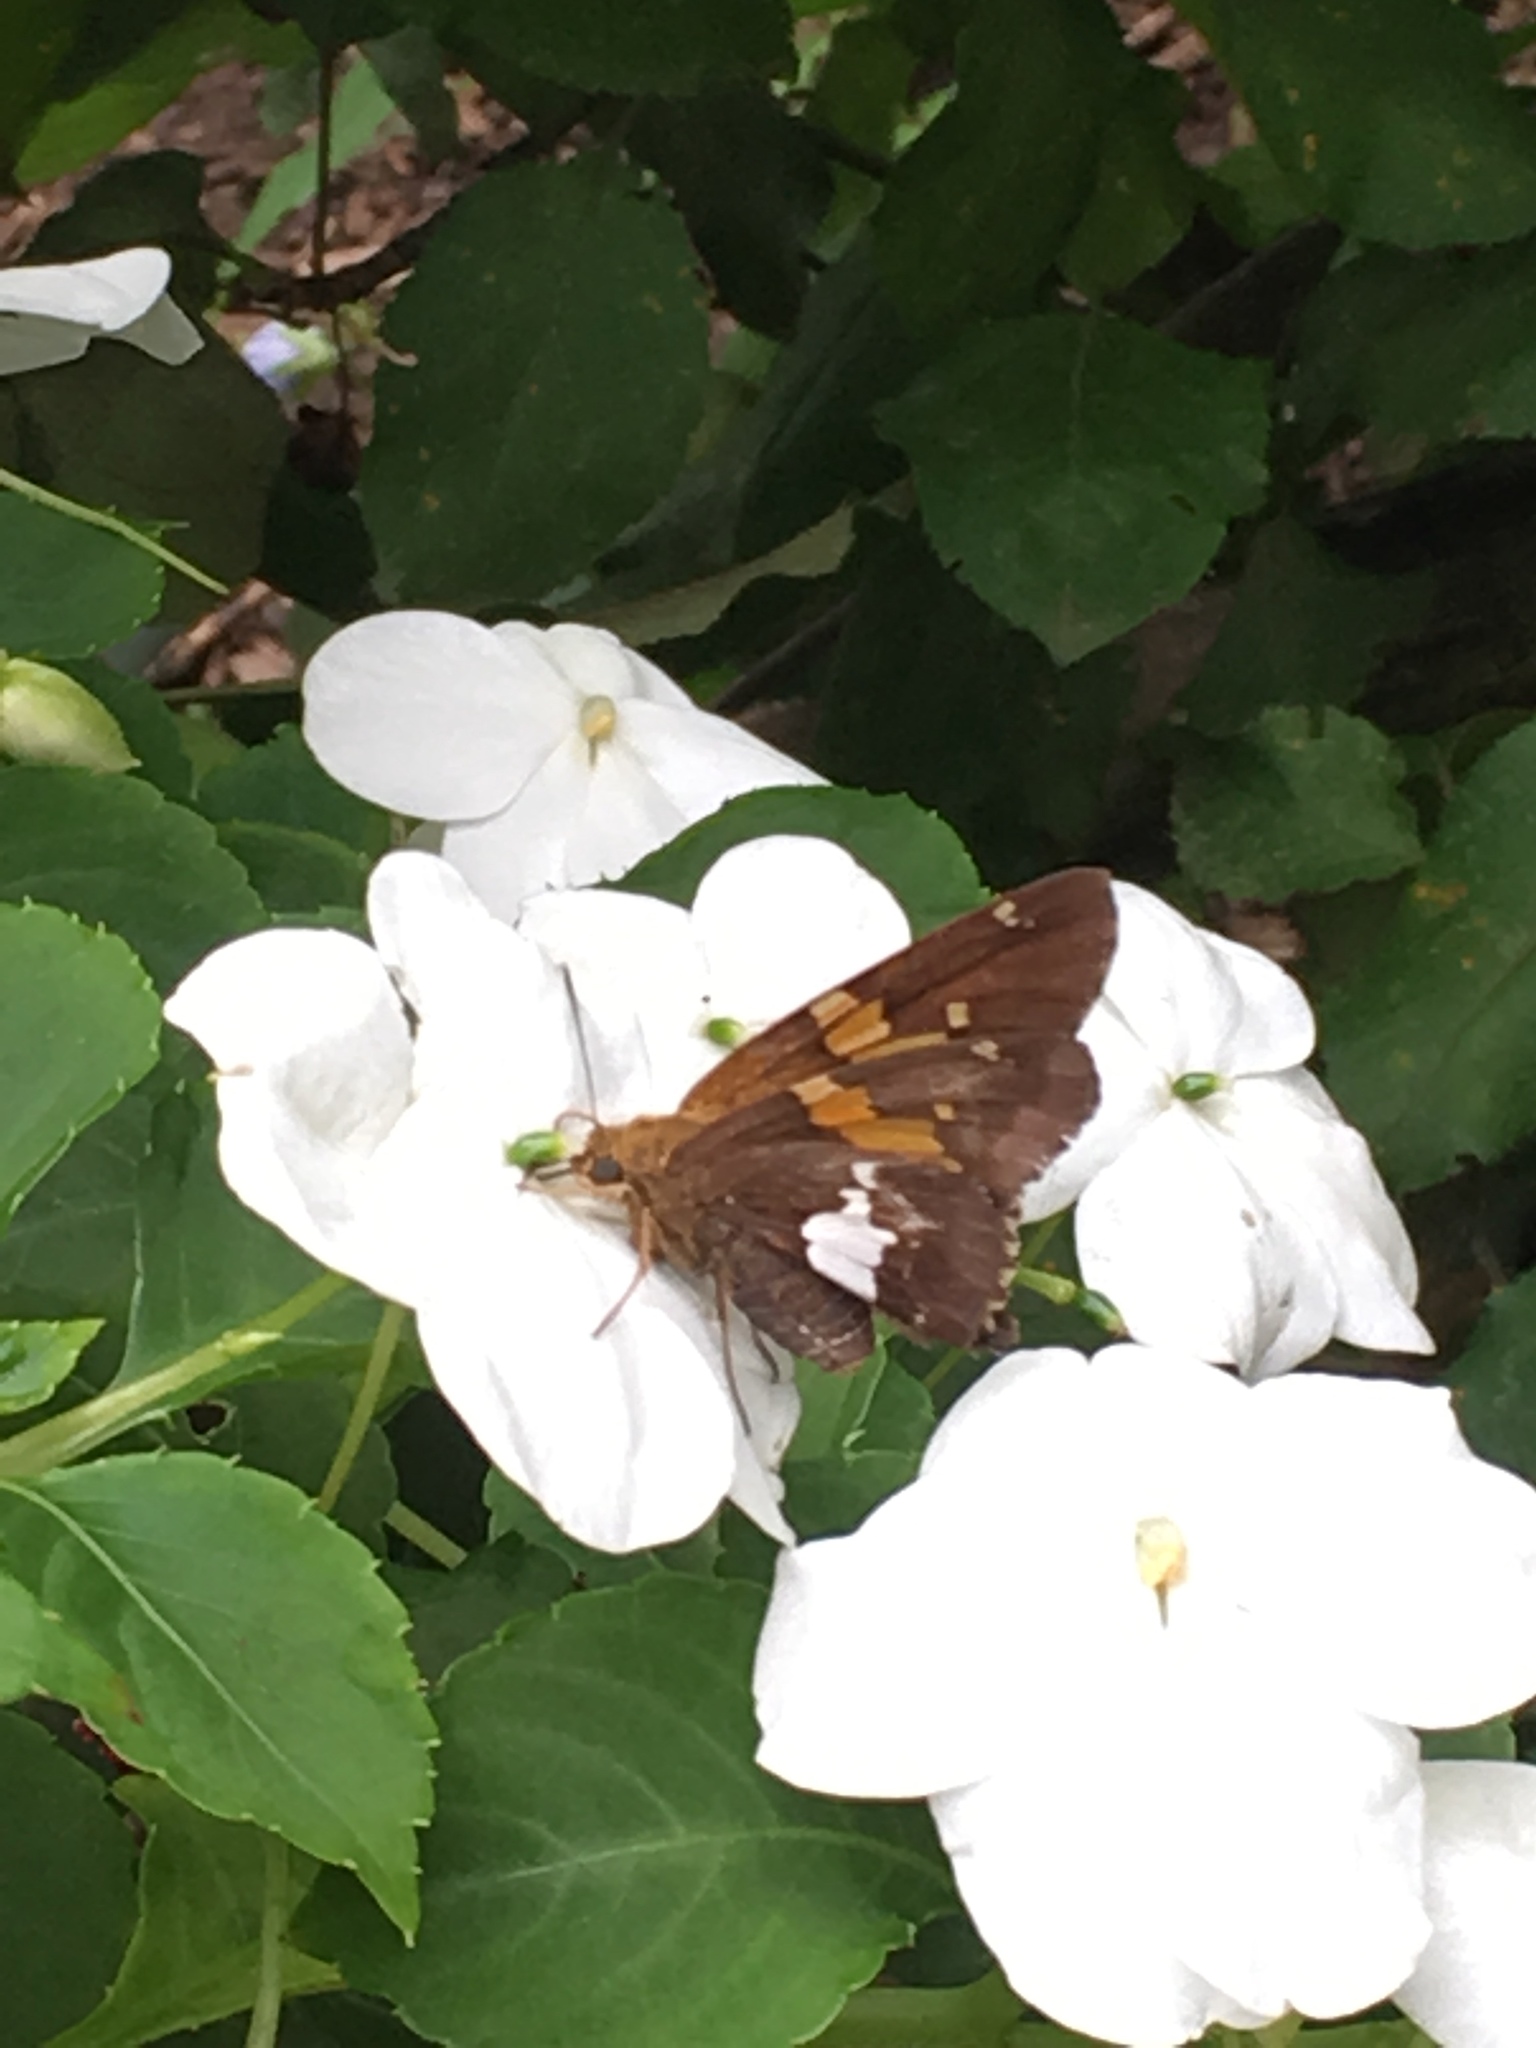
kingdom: Animalia
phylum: Arthropoda
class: Insecta
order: Lepidoptera
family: Hesperiidae
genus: Epargyreus
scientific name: Epargyreus clarus
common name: Silver-spotted skipper
